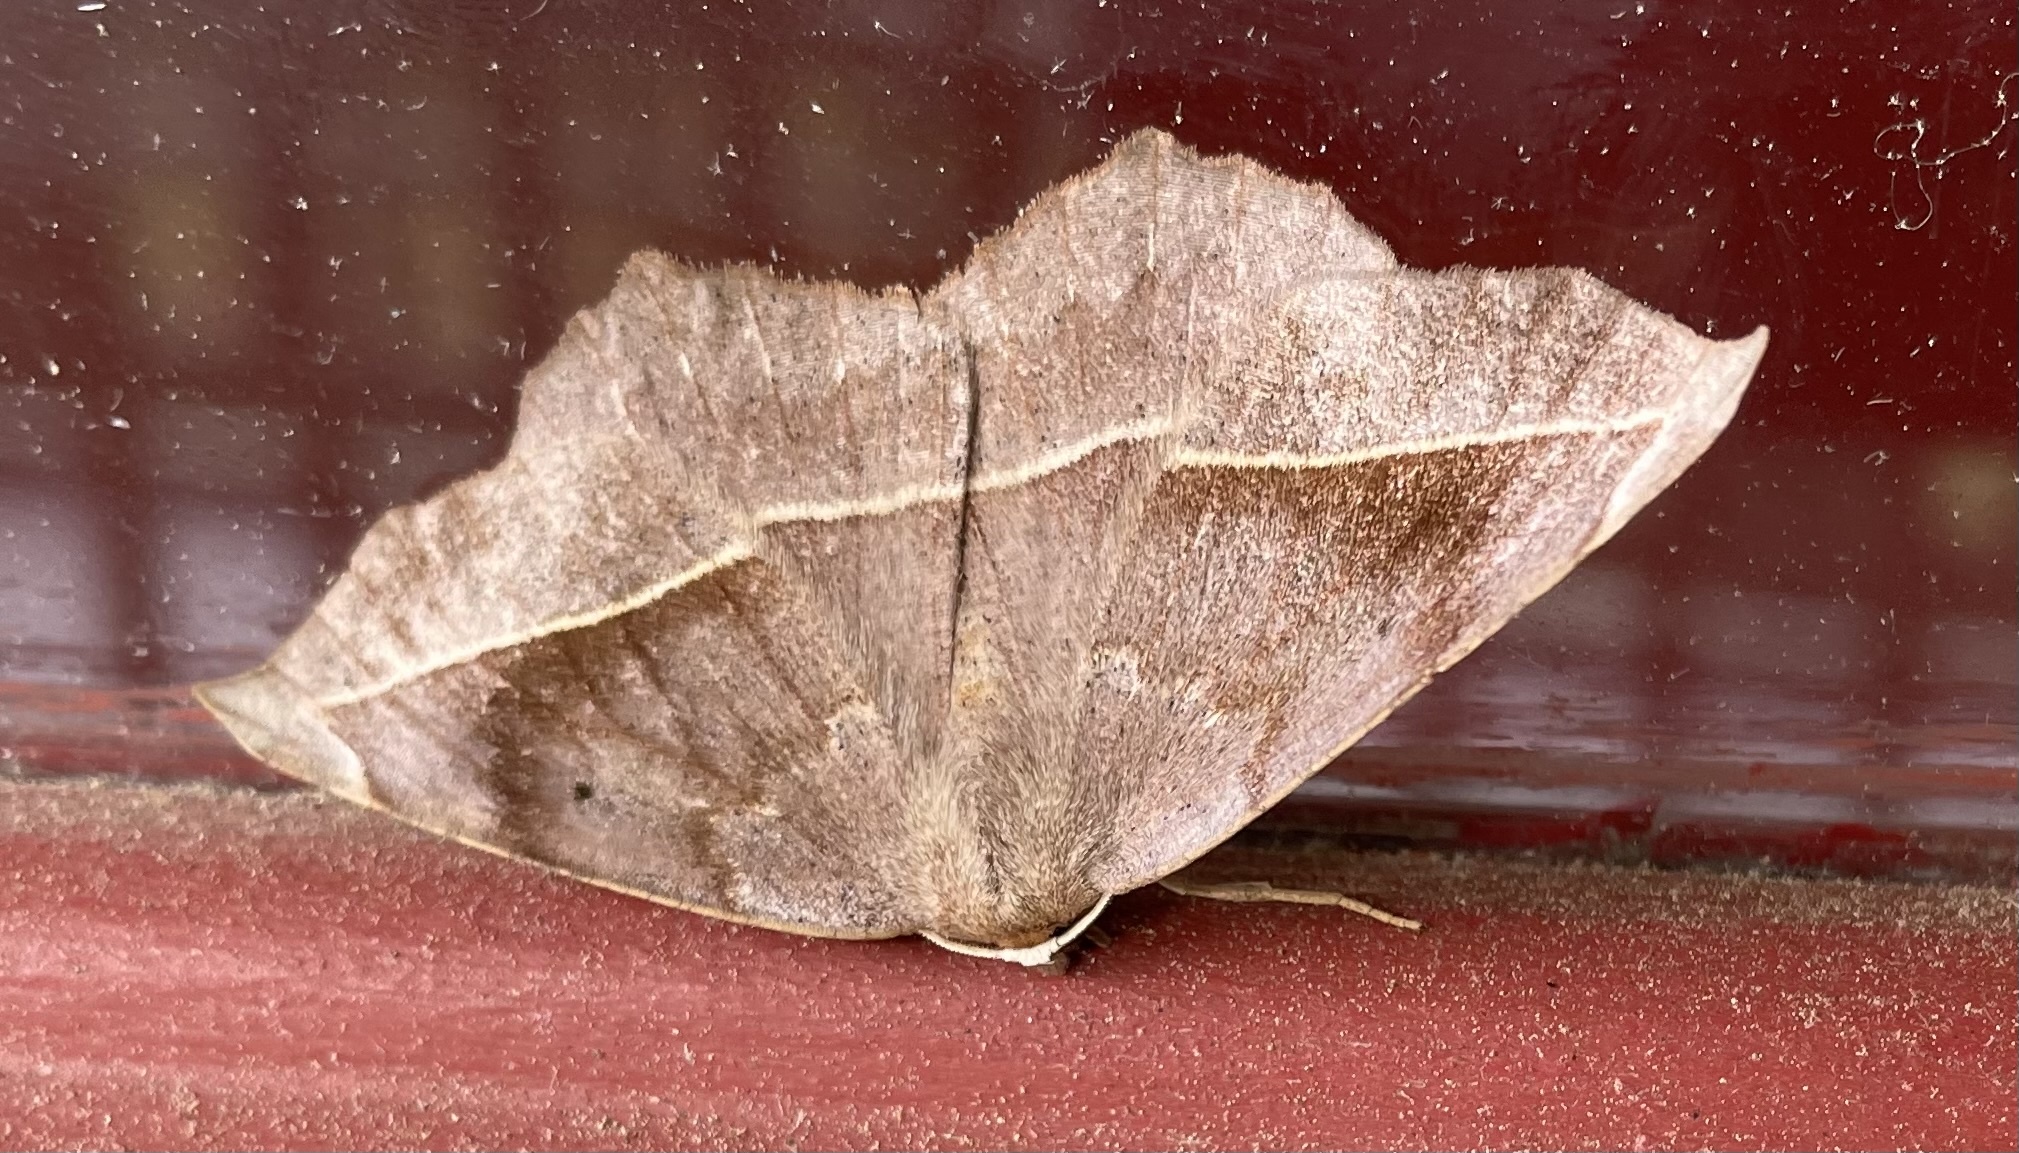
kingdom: Animalia
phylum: Arthropoda
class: Insecta
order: Lepidoptera
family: Geometridae
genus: Eutrapela
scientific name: Eutrapela clemataria
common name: Curved-toothed geometer
